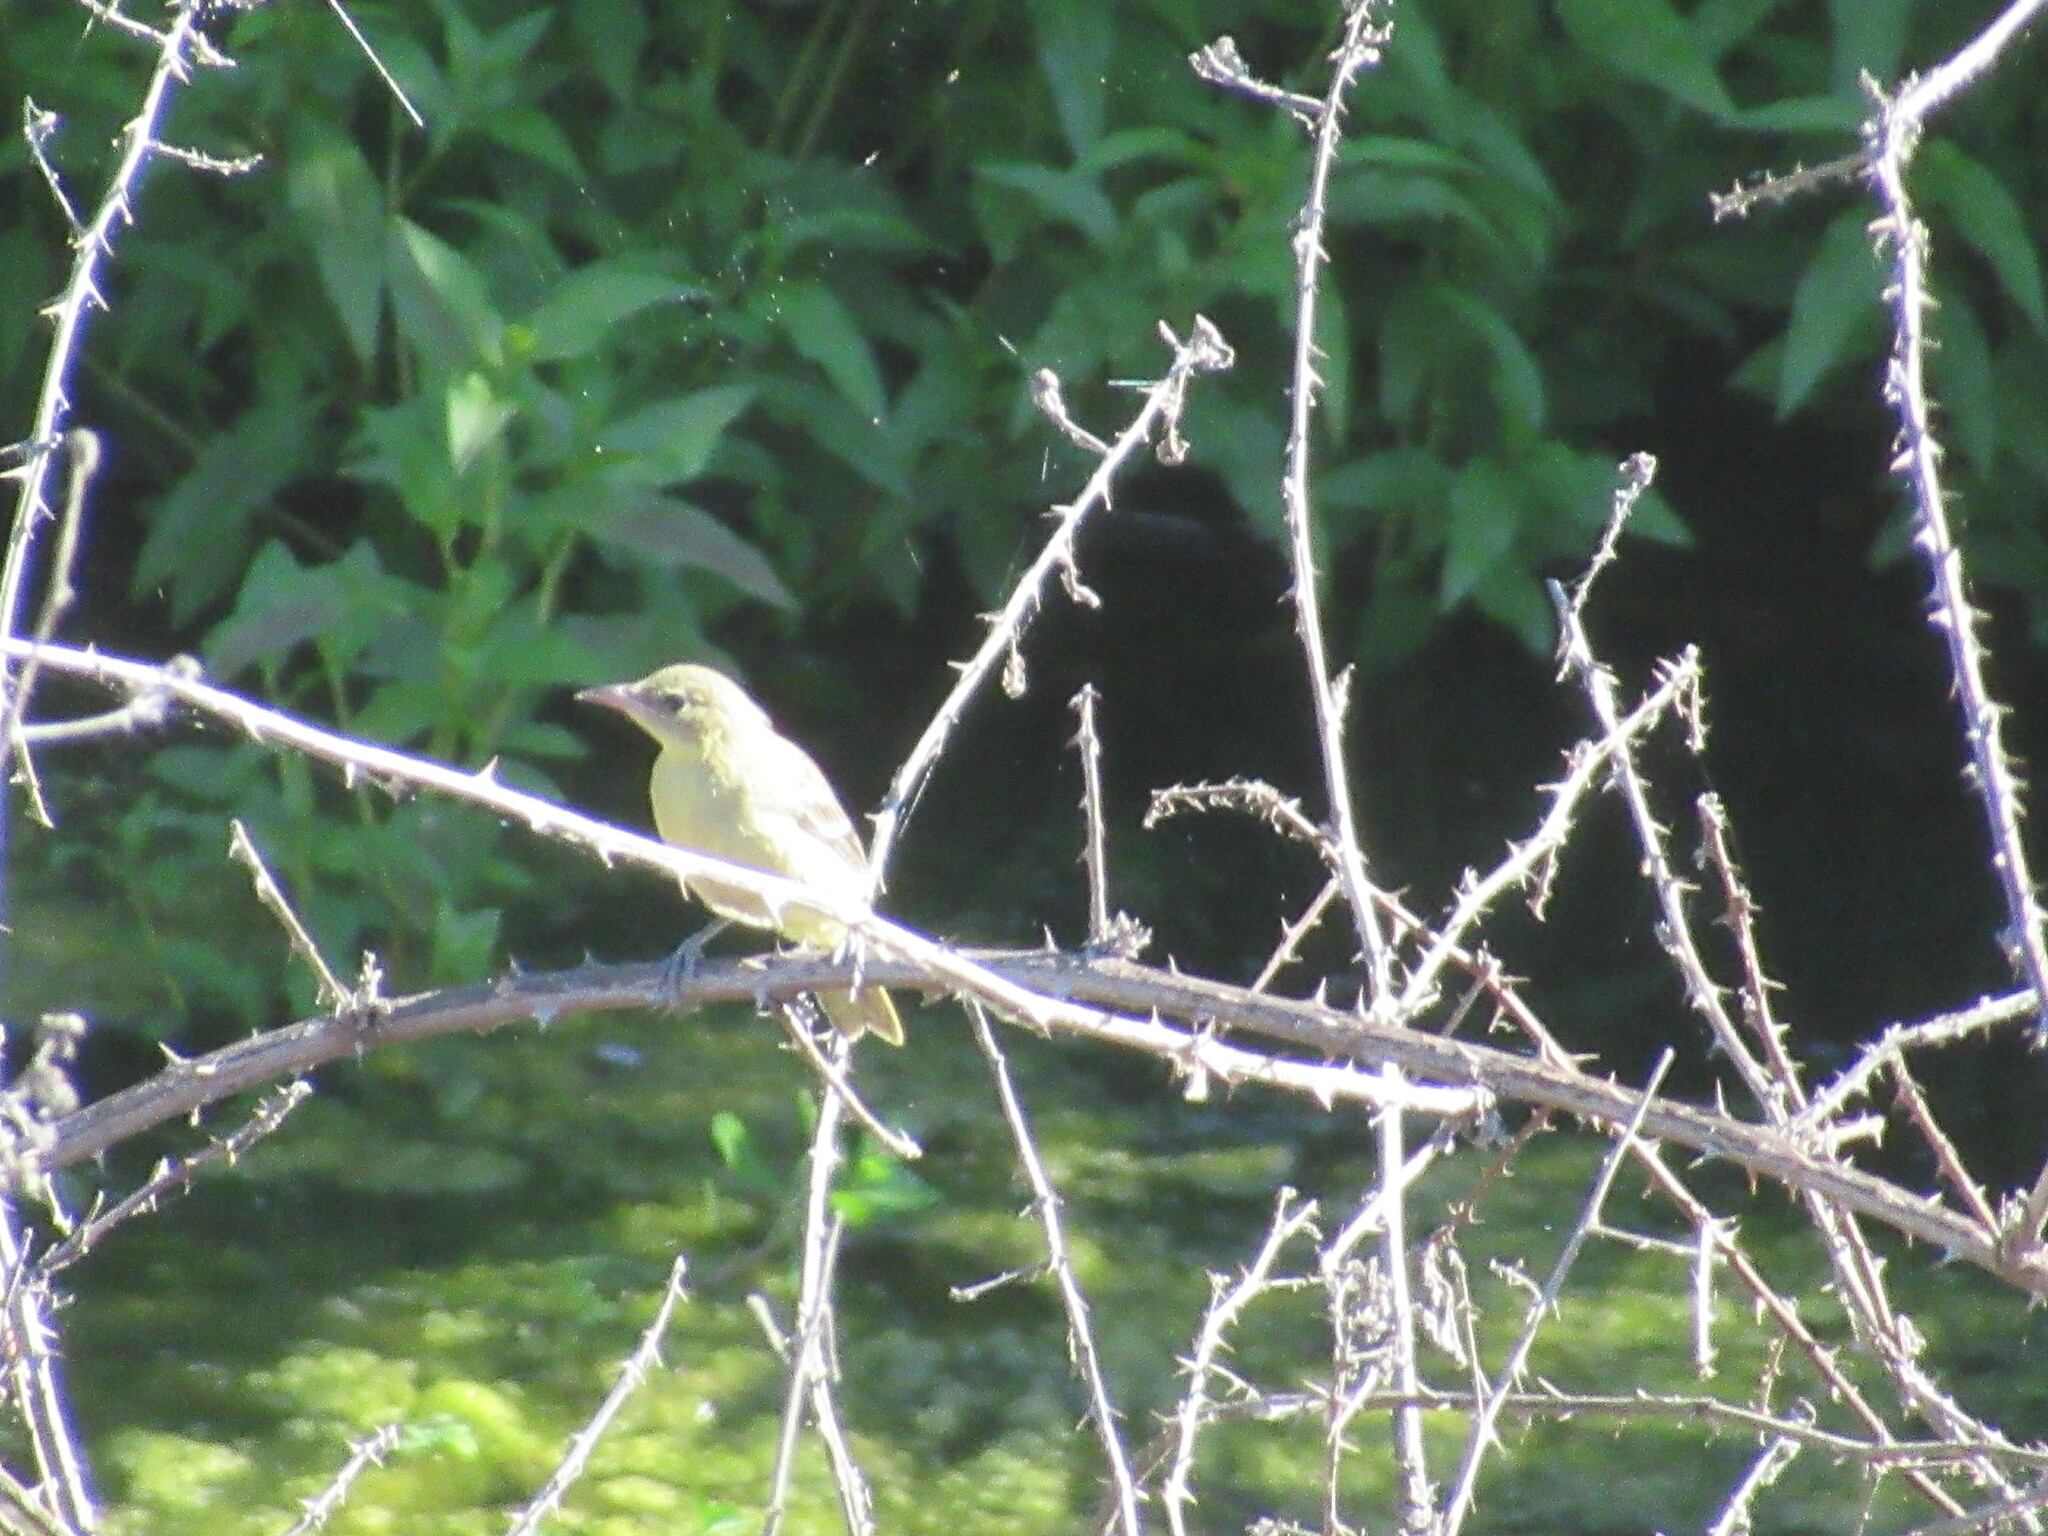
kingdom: Animalia
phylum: Chordata
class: Aves
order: Passeriformes
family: Icteridae
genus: Icterus
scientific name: Icterus cucullatus
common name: Hooded oriole
